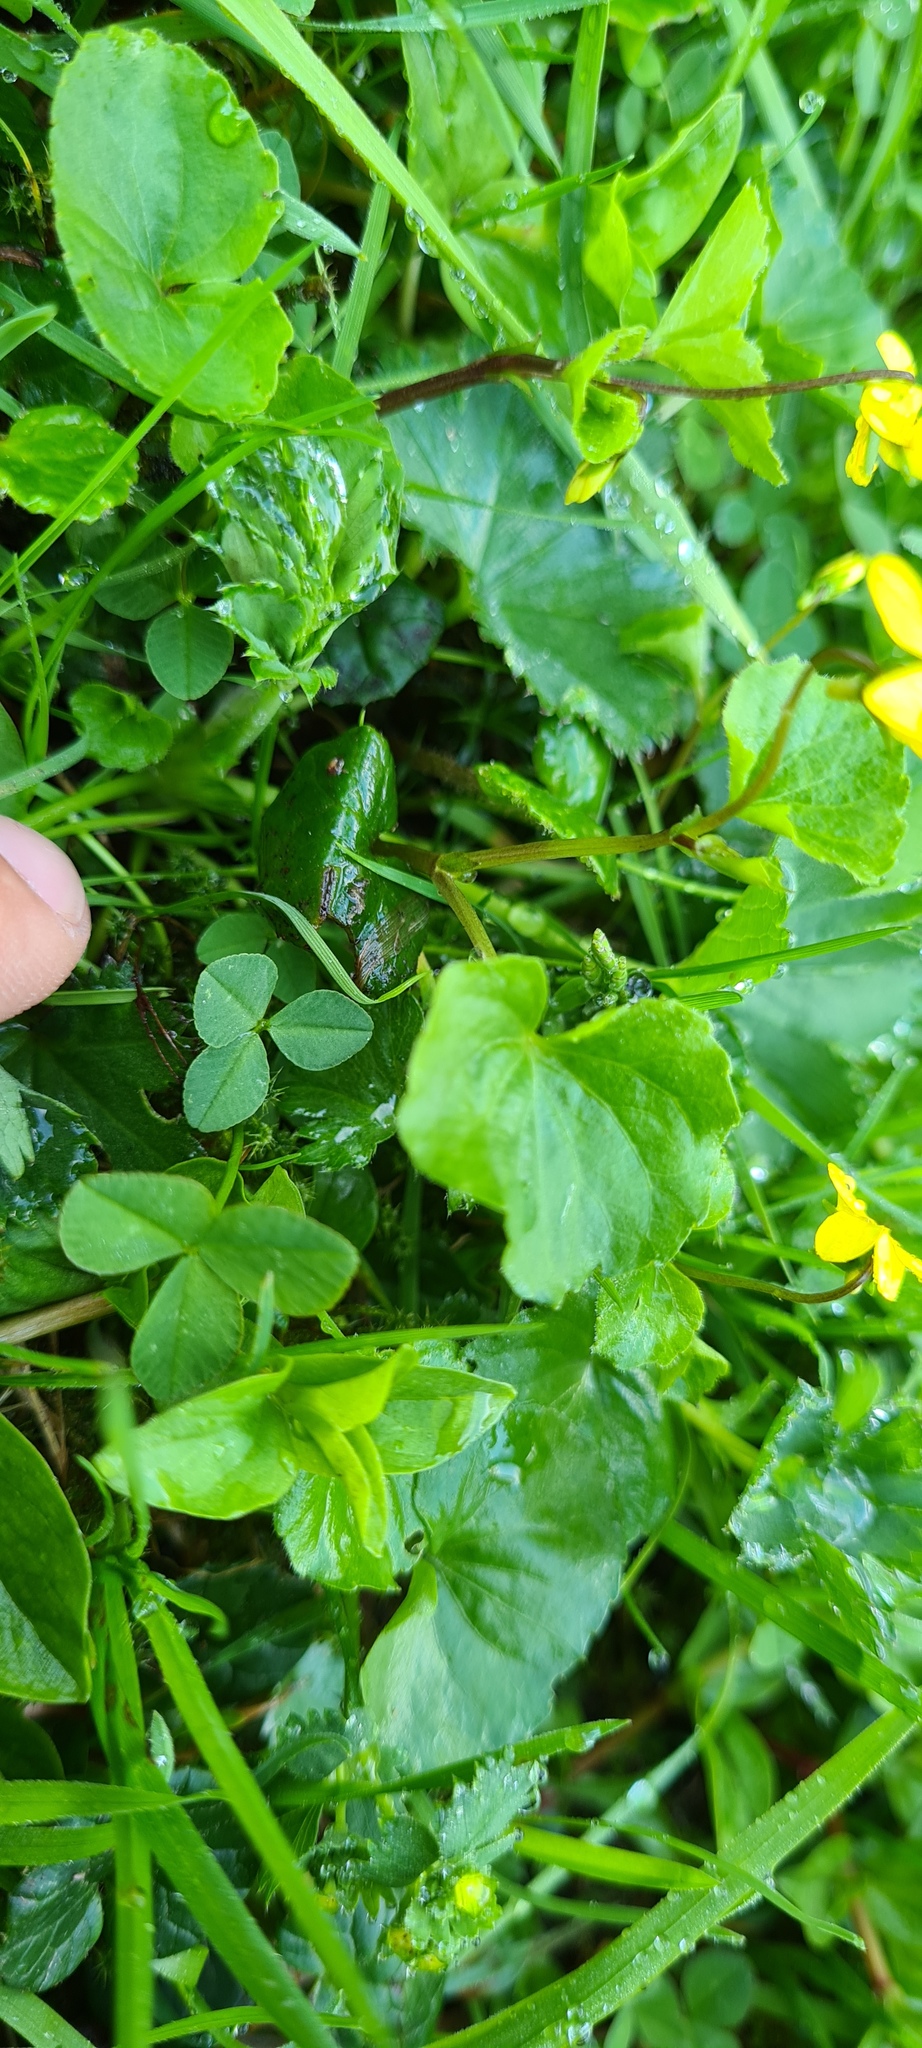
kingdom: Plantae
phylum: Tracheophyta
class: Magnoliopsida
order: Malpighiales
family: Violaceae
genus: Viola
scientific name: Viola biflora
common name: Alpine yellow violet
